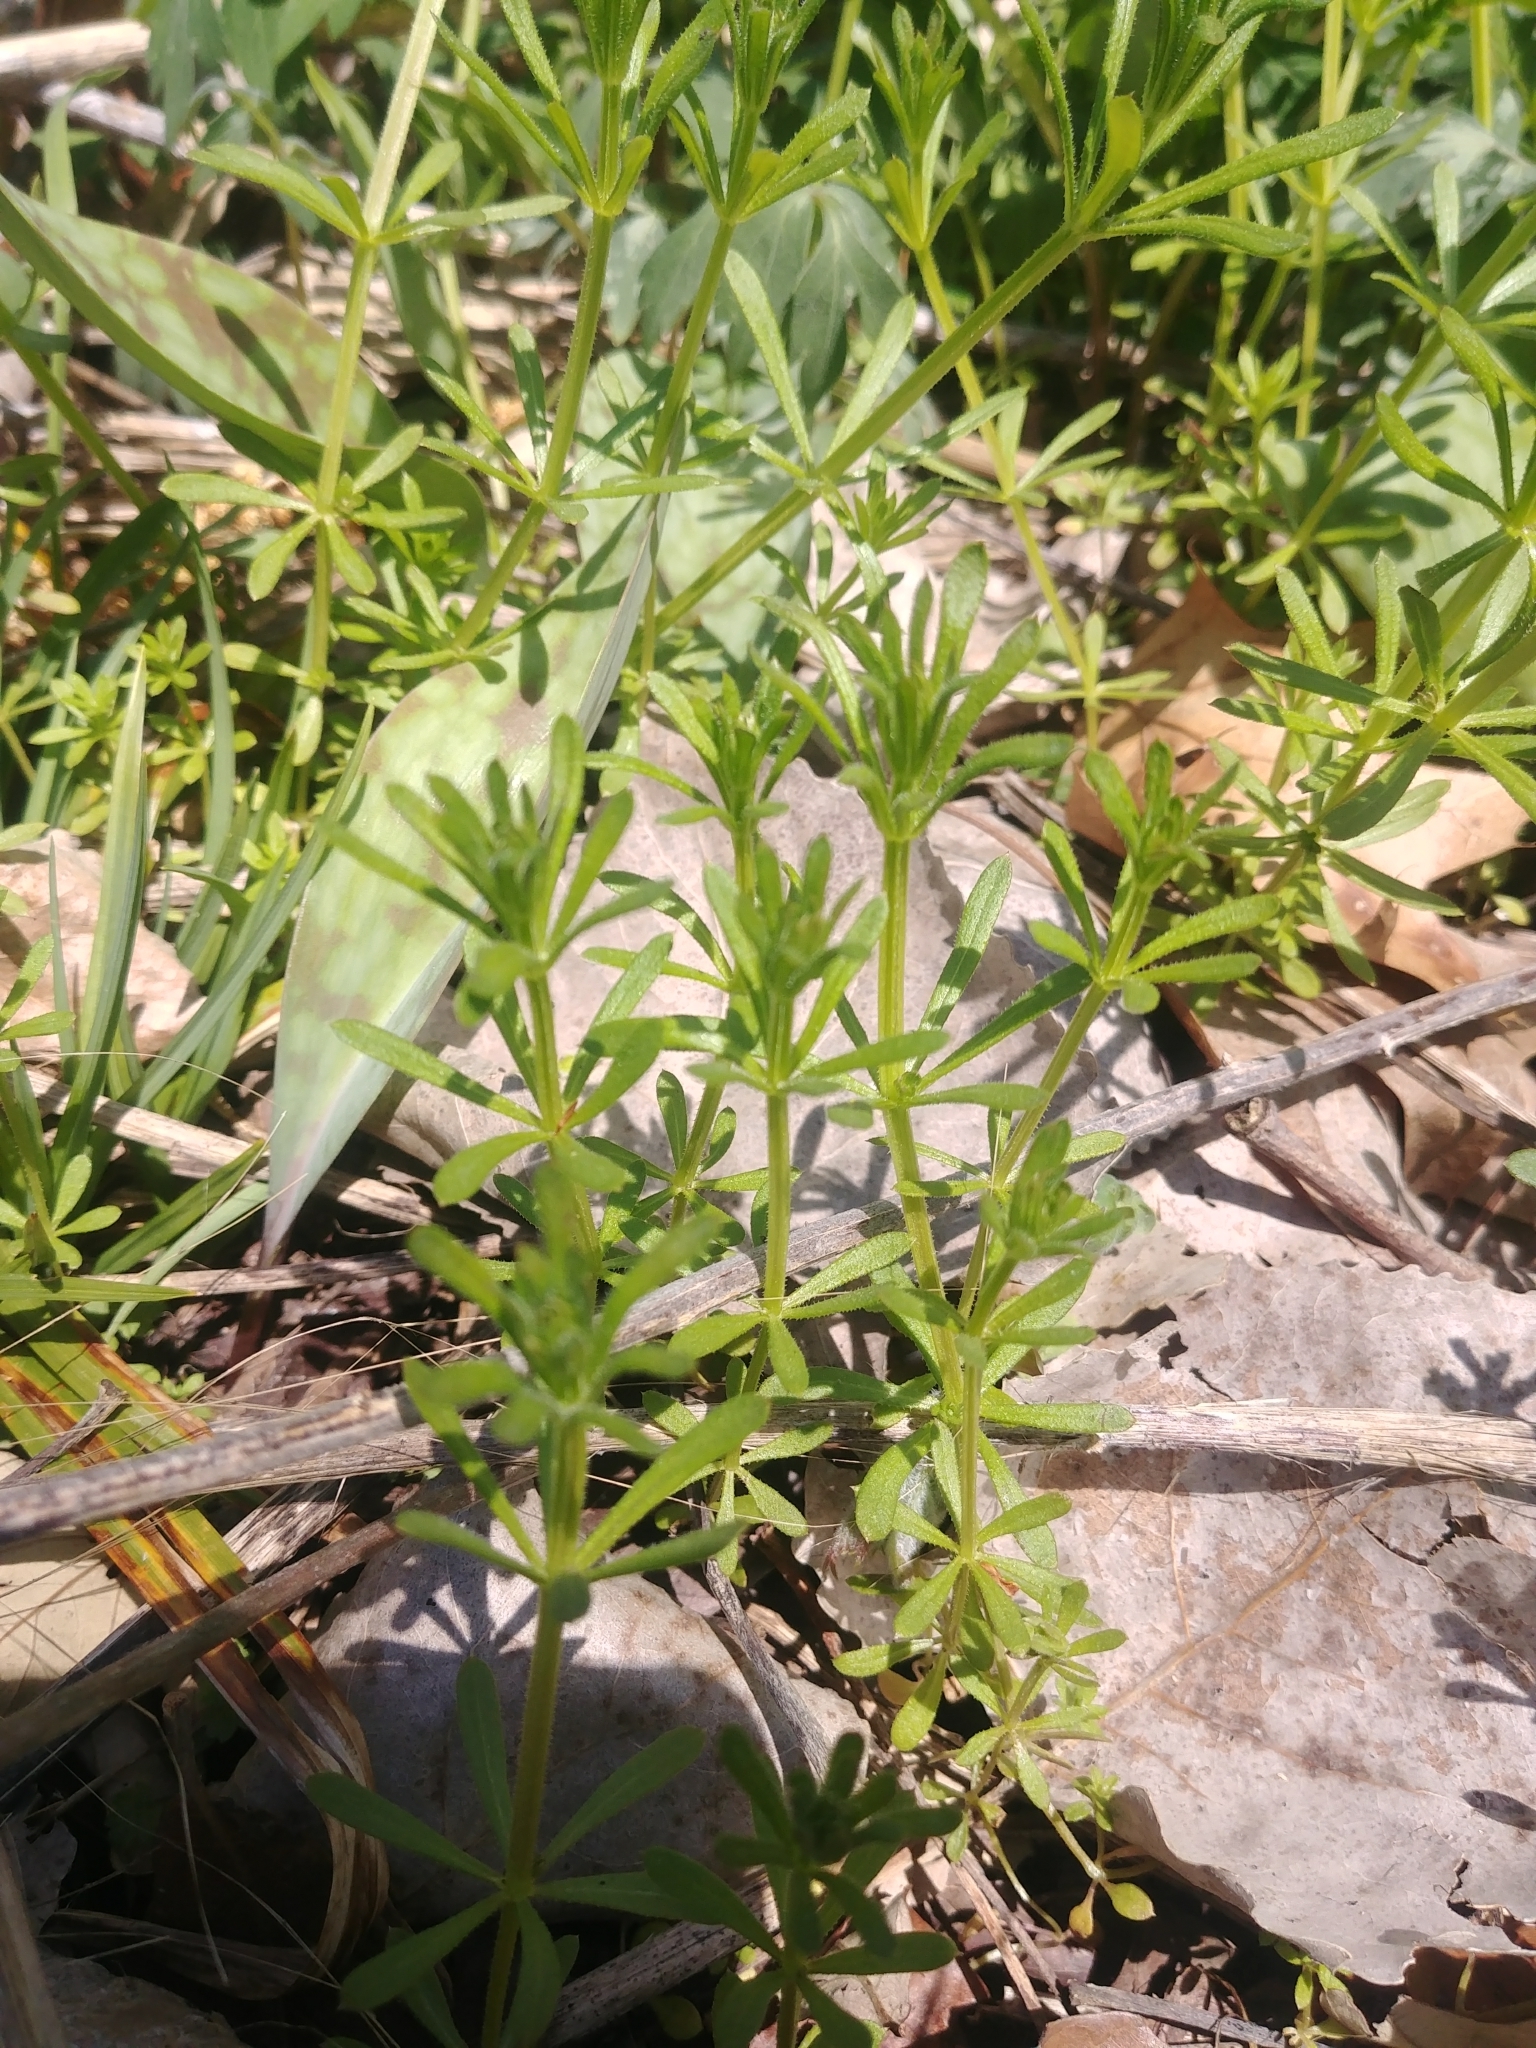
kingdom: Plantae
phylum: Tracheophyta
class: Magnoliopsida
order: Gentianales
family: Rubiaceae
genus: Galium
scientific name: Galium aparine
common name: Cleavers
